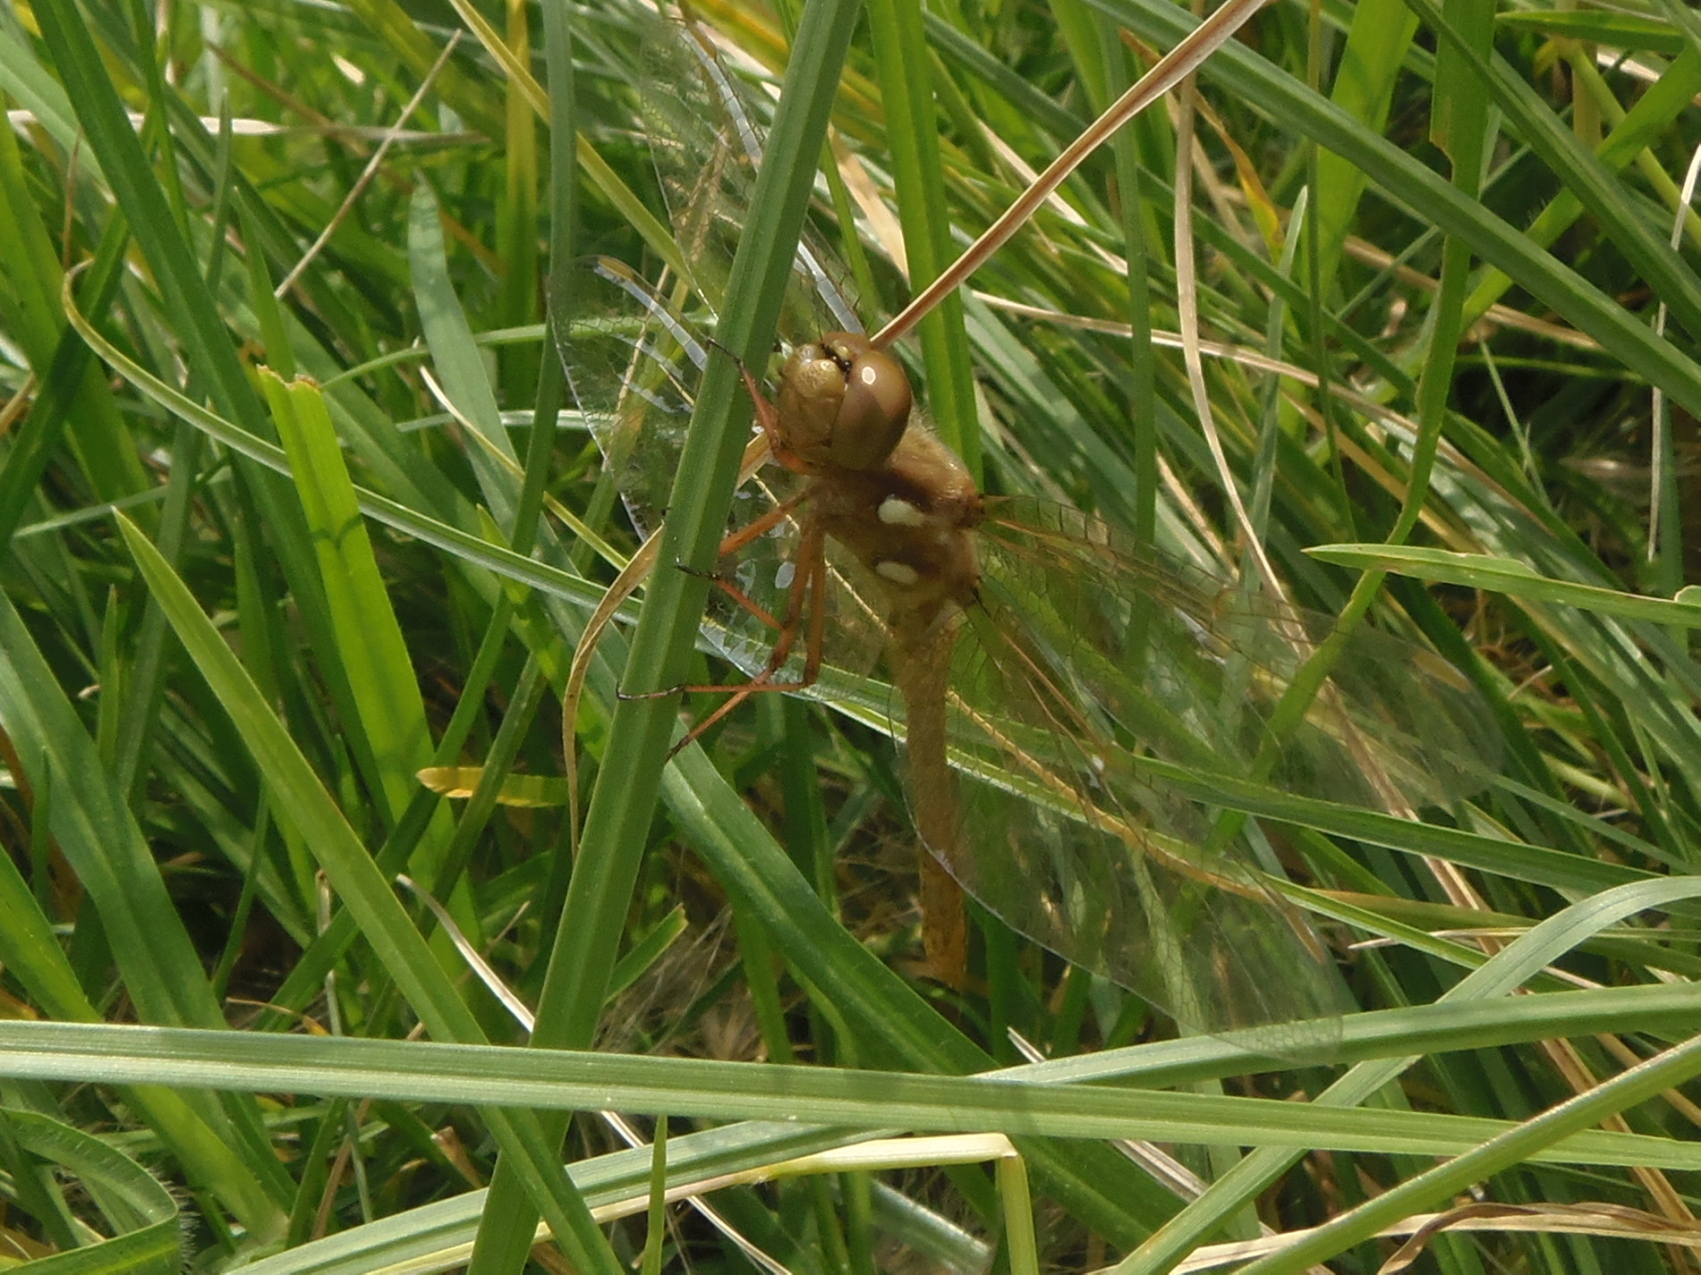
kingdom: Animalia
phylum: Arthropoda
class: Insecta
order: Odonata
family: Libellulidae
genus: Sympetrum
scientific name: Sympetrum illotum
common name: Cardinal meadowhawk
